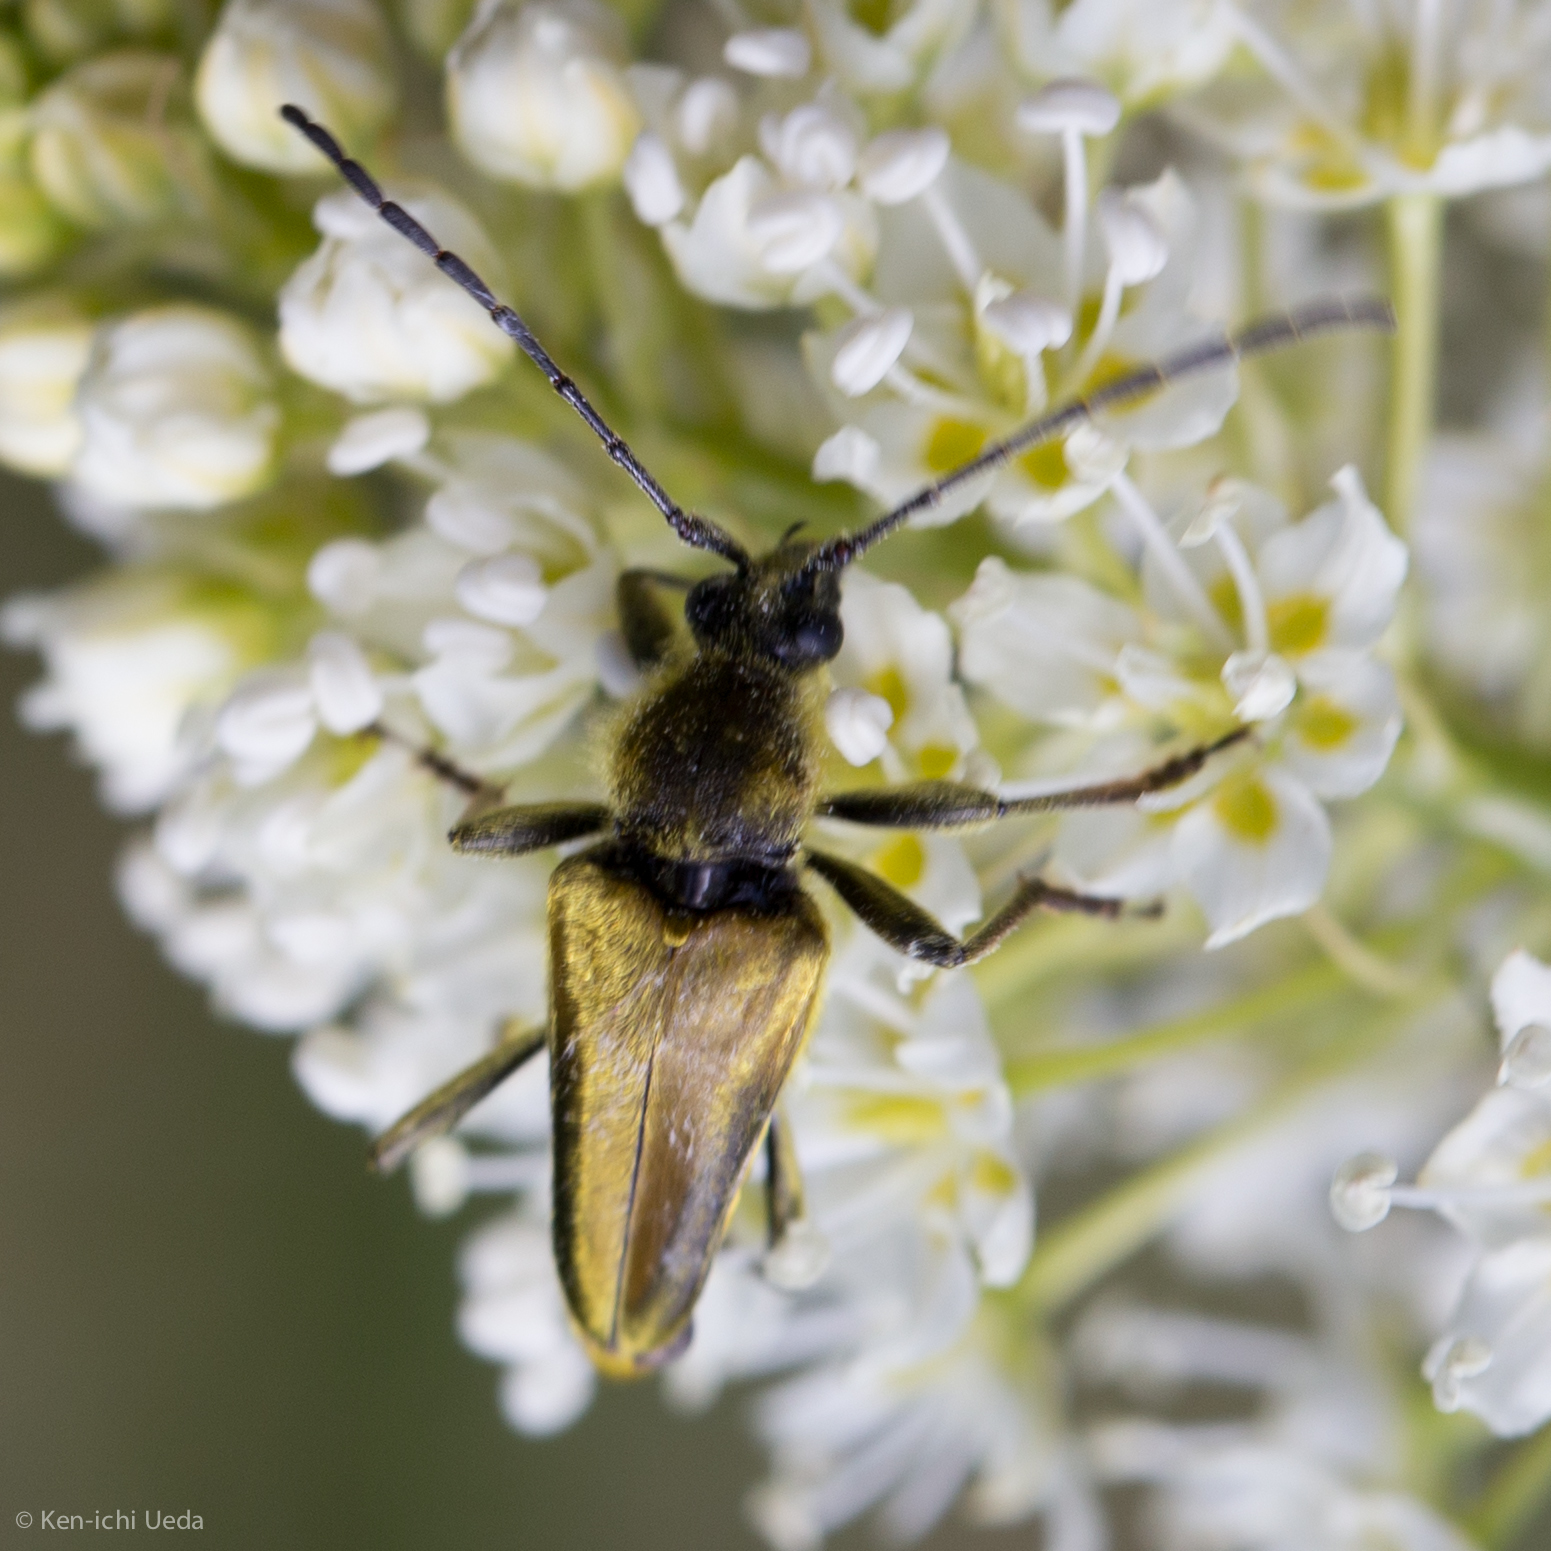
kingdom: Animalia
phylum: Arthropoda
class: Insecta
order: Coleoptera
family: Cerambycidae
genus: Cosmosalia
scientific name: Cosmosalia chrysocoma
